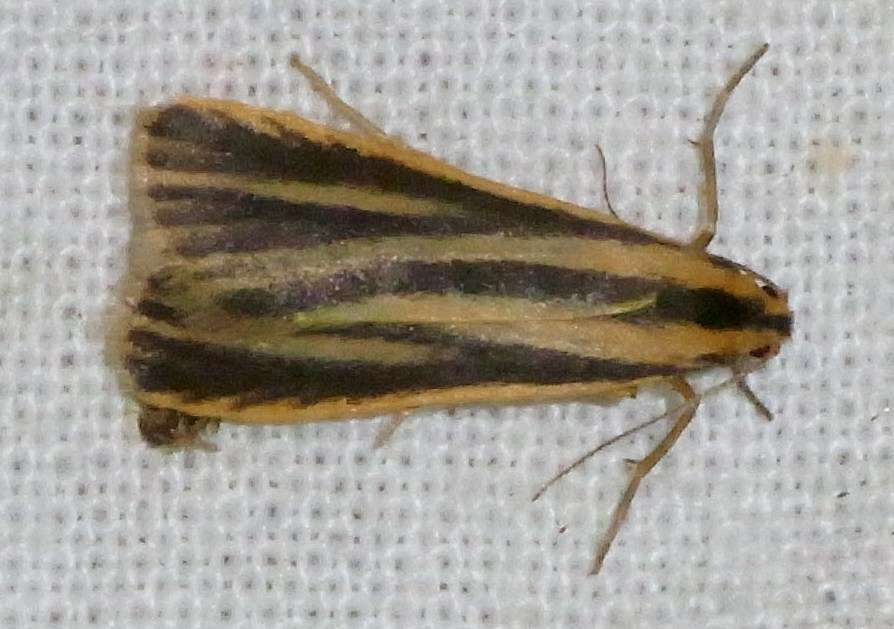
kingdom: Animalia
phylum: Arthropoda
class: Insecta
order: Lepidoptera
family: Erebidae
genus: Phaeophlebosia
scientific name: Phaeophlebosia furcifera
